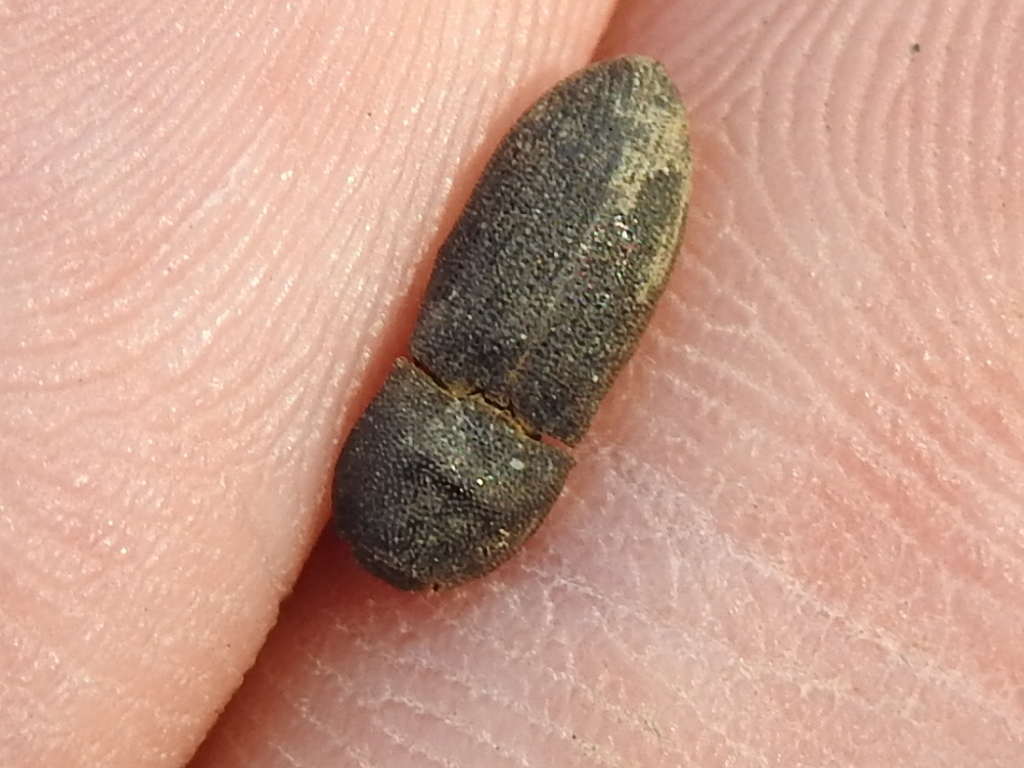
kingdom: Animalia
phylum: Arthropoda
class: Insecta
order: Coleoptera
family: Elateridae
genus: Agrypnus
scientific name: Agrypnus rectangularis
